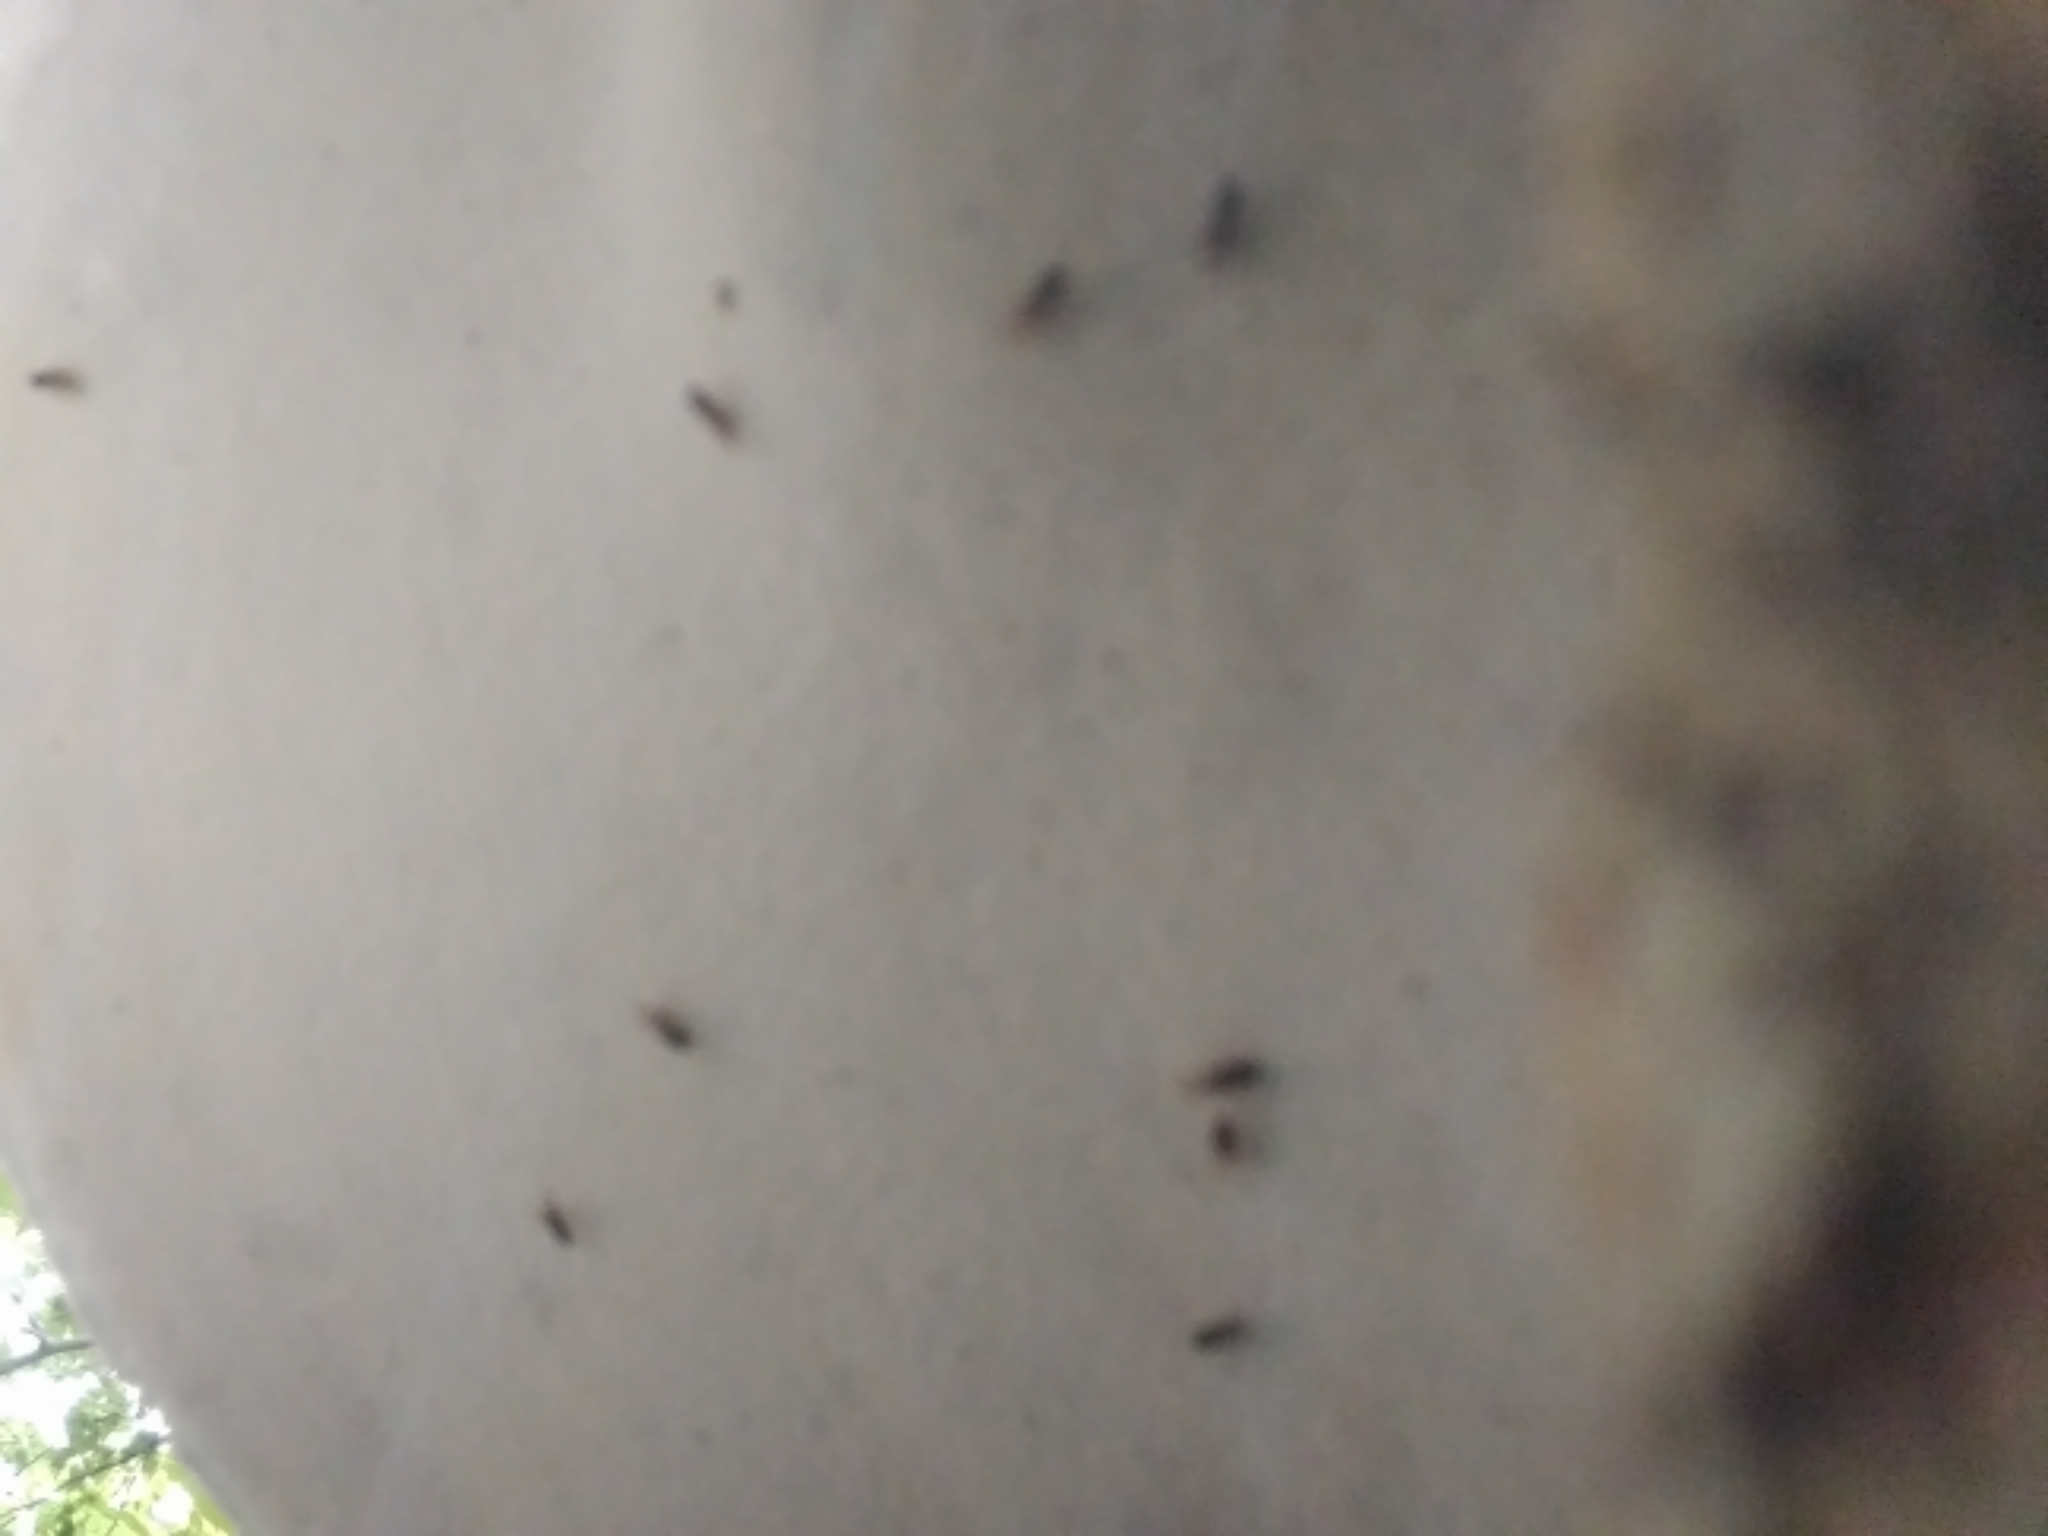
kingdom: Fungi
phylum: Basidiomycota
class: Agaricomycetes
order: Polyporales
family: Polyporaceae
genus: Ganoderma
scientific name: Ganoderma applanatum
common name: Artist's bracket
